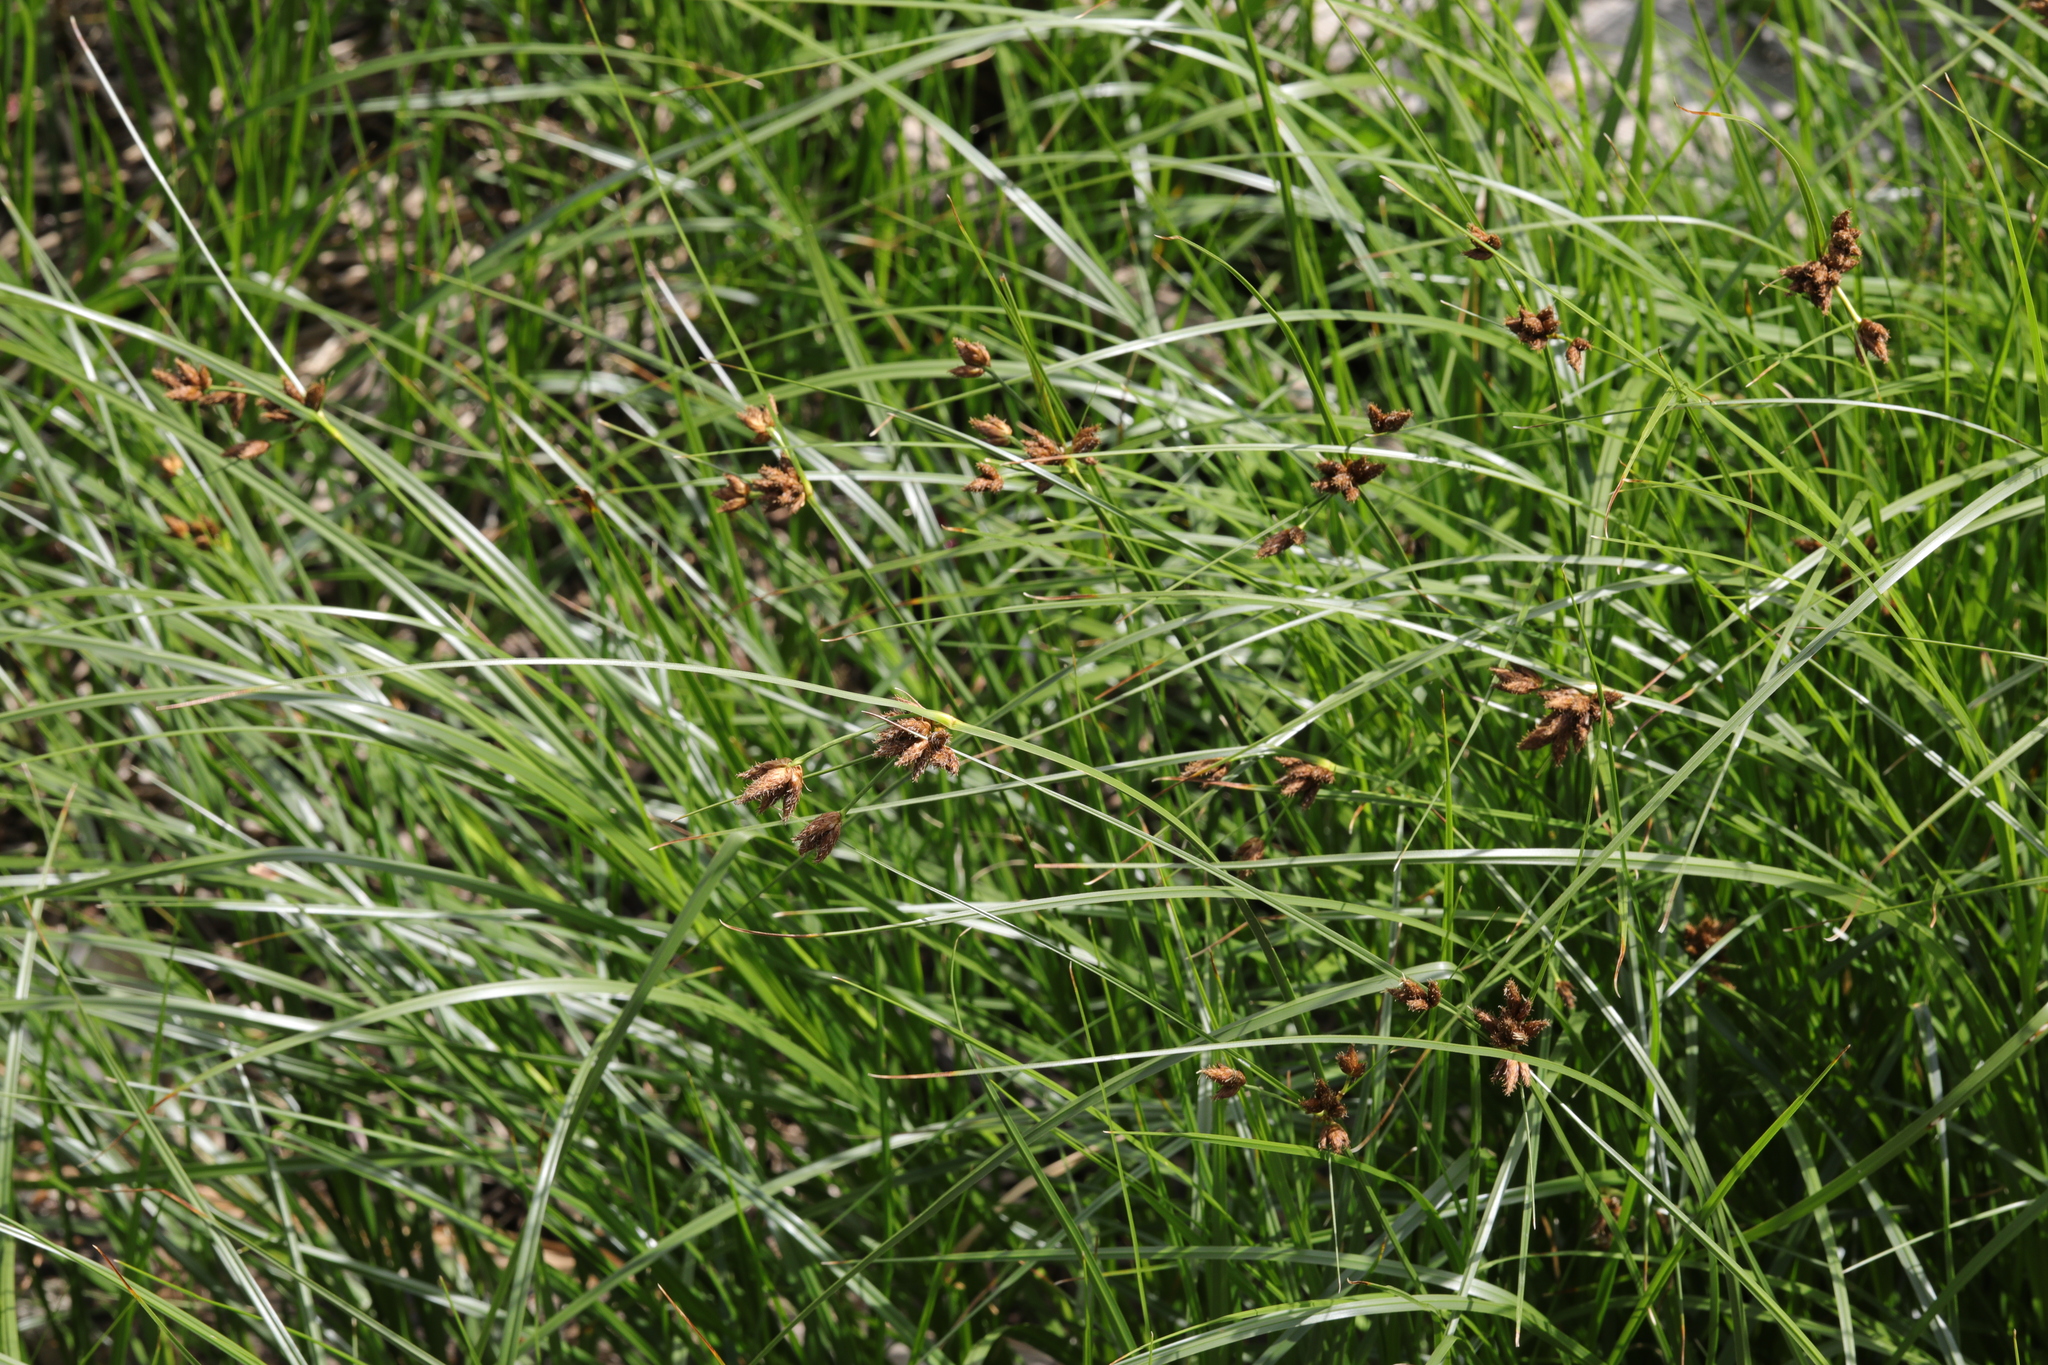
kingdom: Plantae
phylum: Tracheophyta
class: Liliopsida
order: Poales
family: Cyperaceae
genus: Bolboschoenus
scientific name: Bolboschoenus maritimus
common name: Sea club-rush
